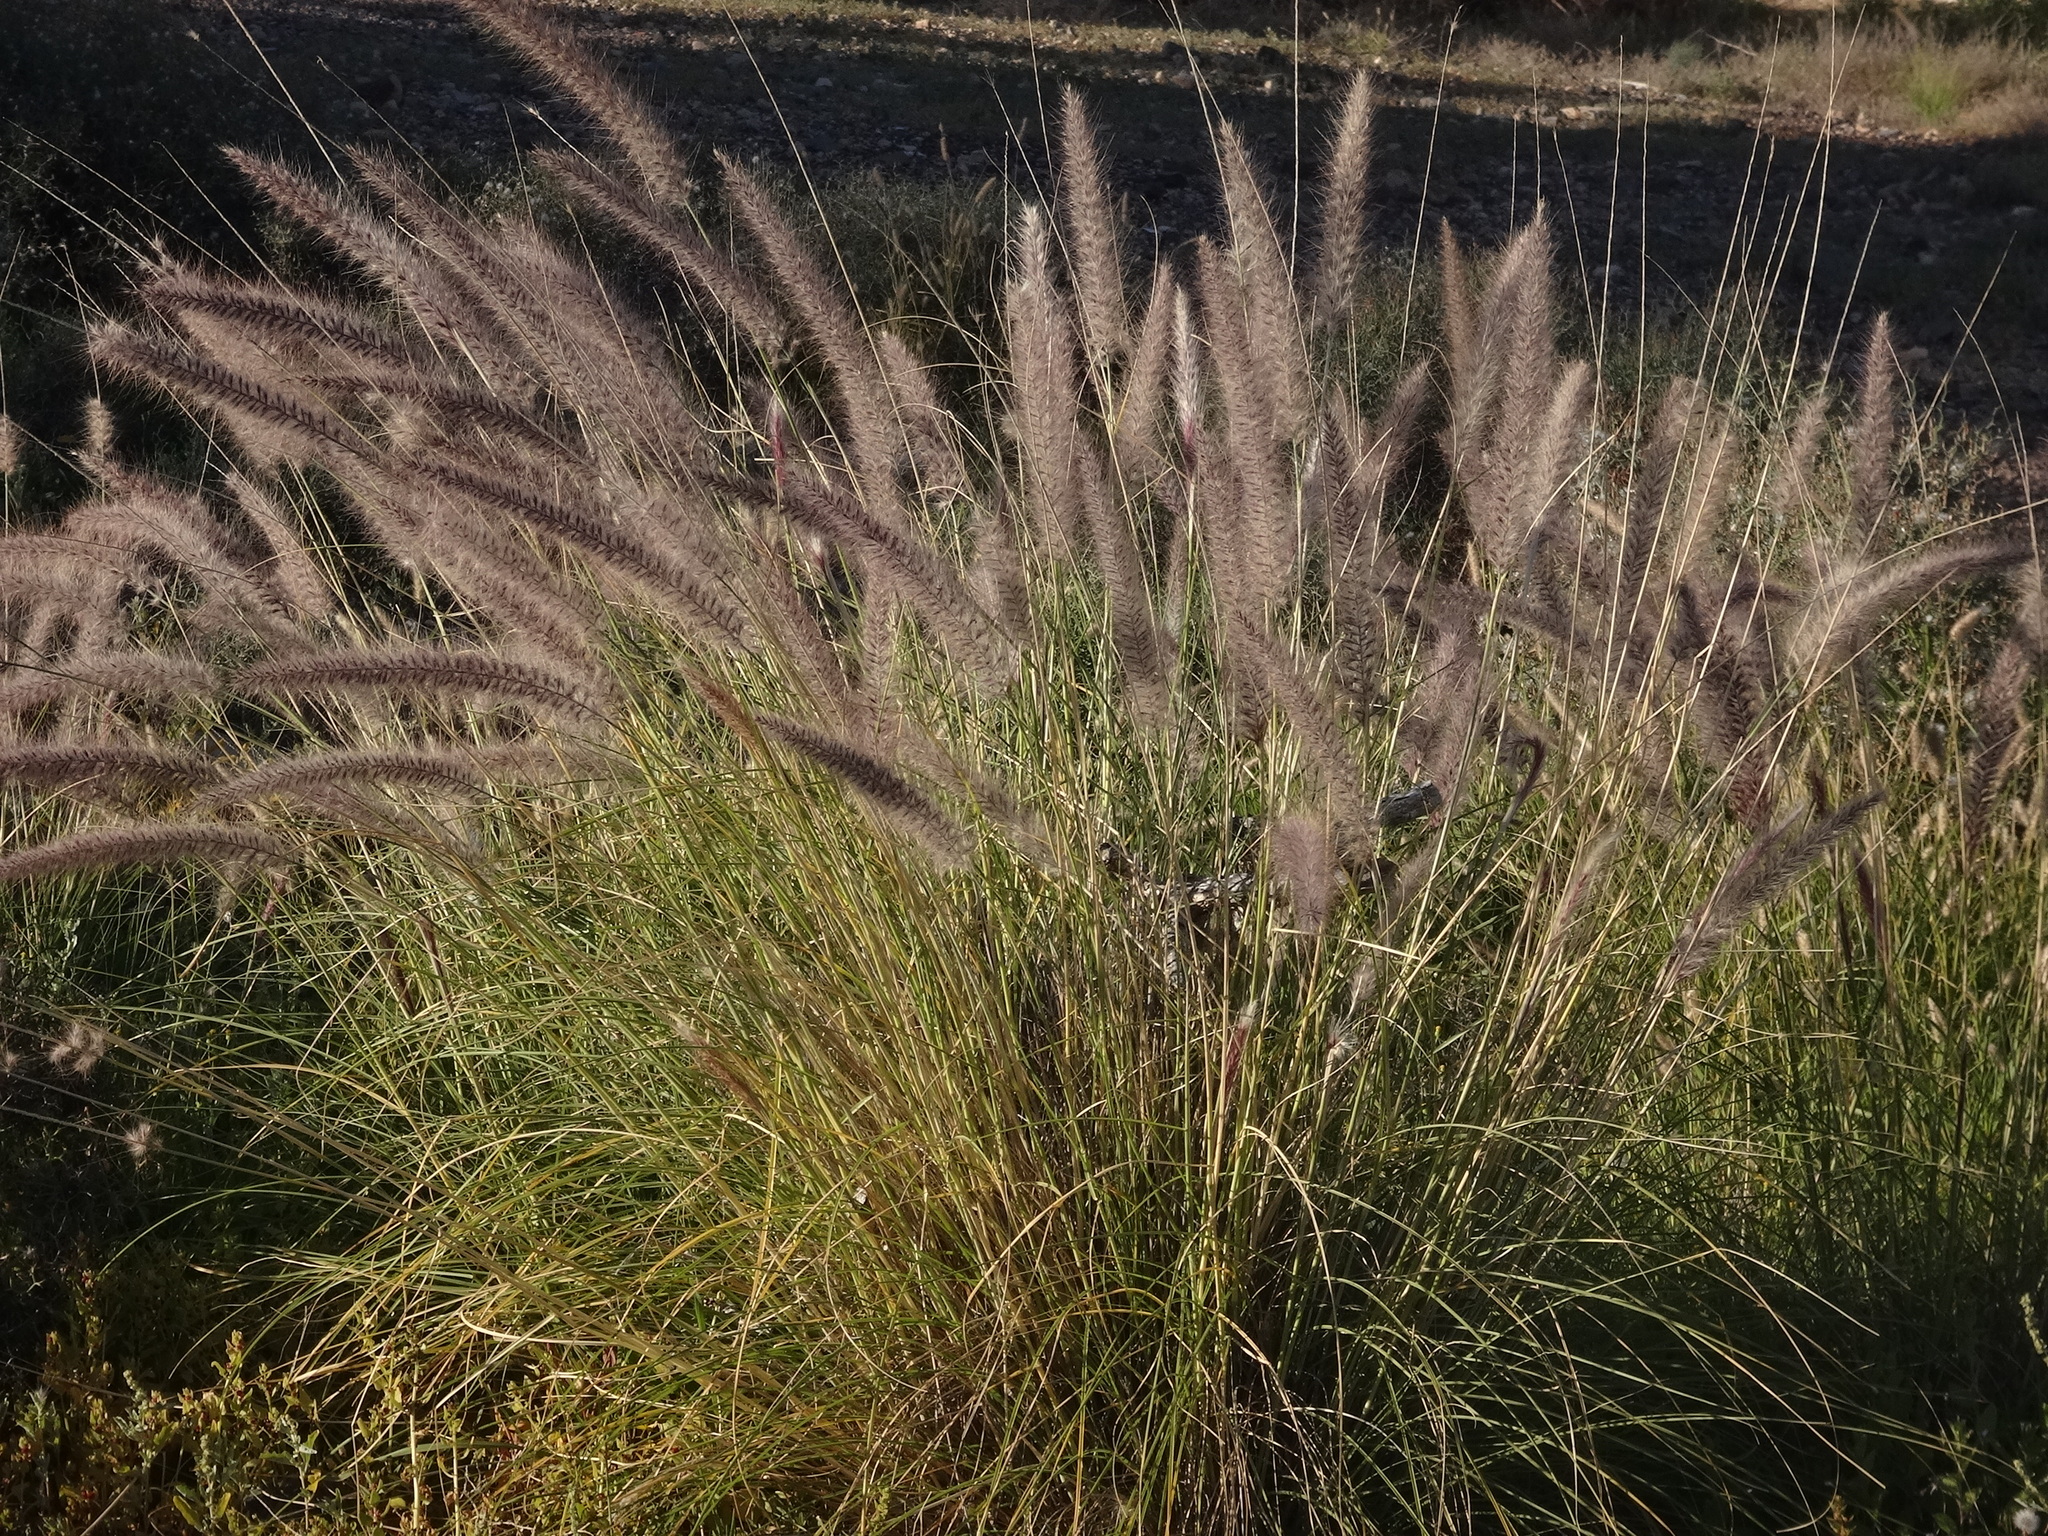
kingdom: Plantae
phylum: Tracheophyta
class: Liliopsida
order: Poales
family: Poaceae
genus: Cenchrus
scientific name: Cenchrus setaceus
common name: Crimson fountaingrass
